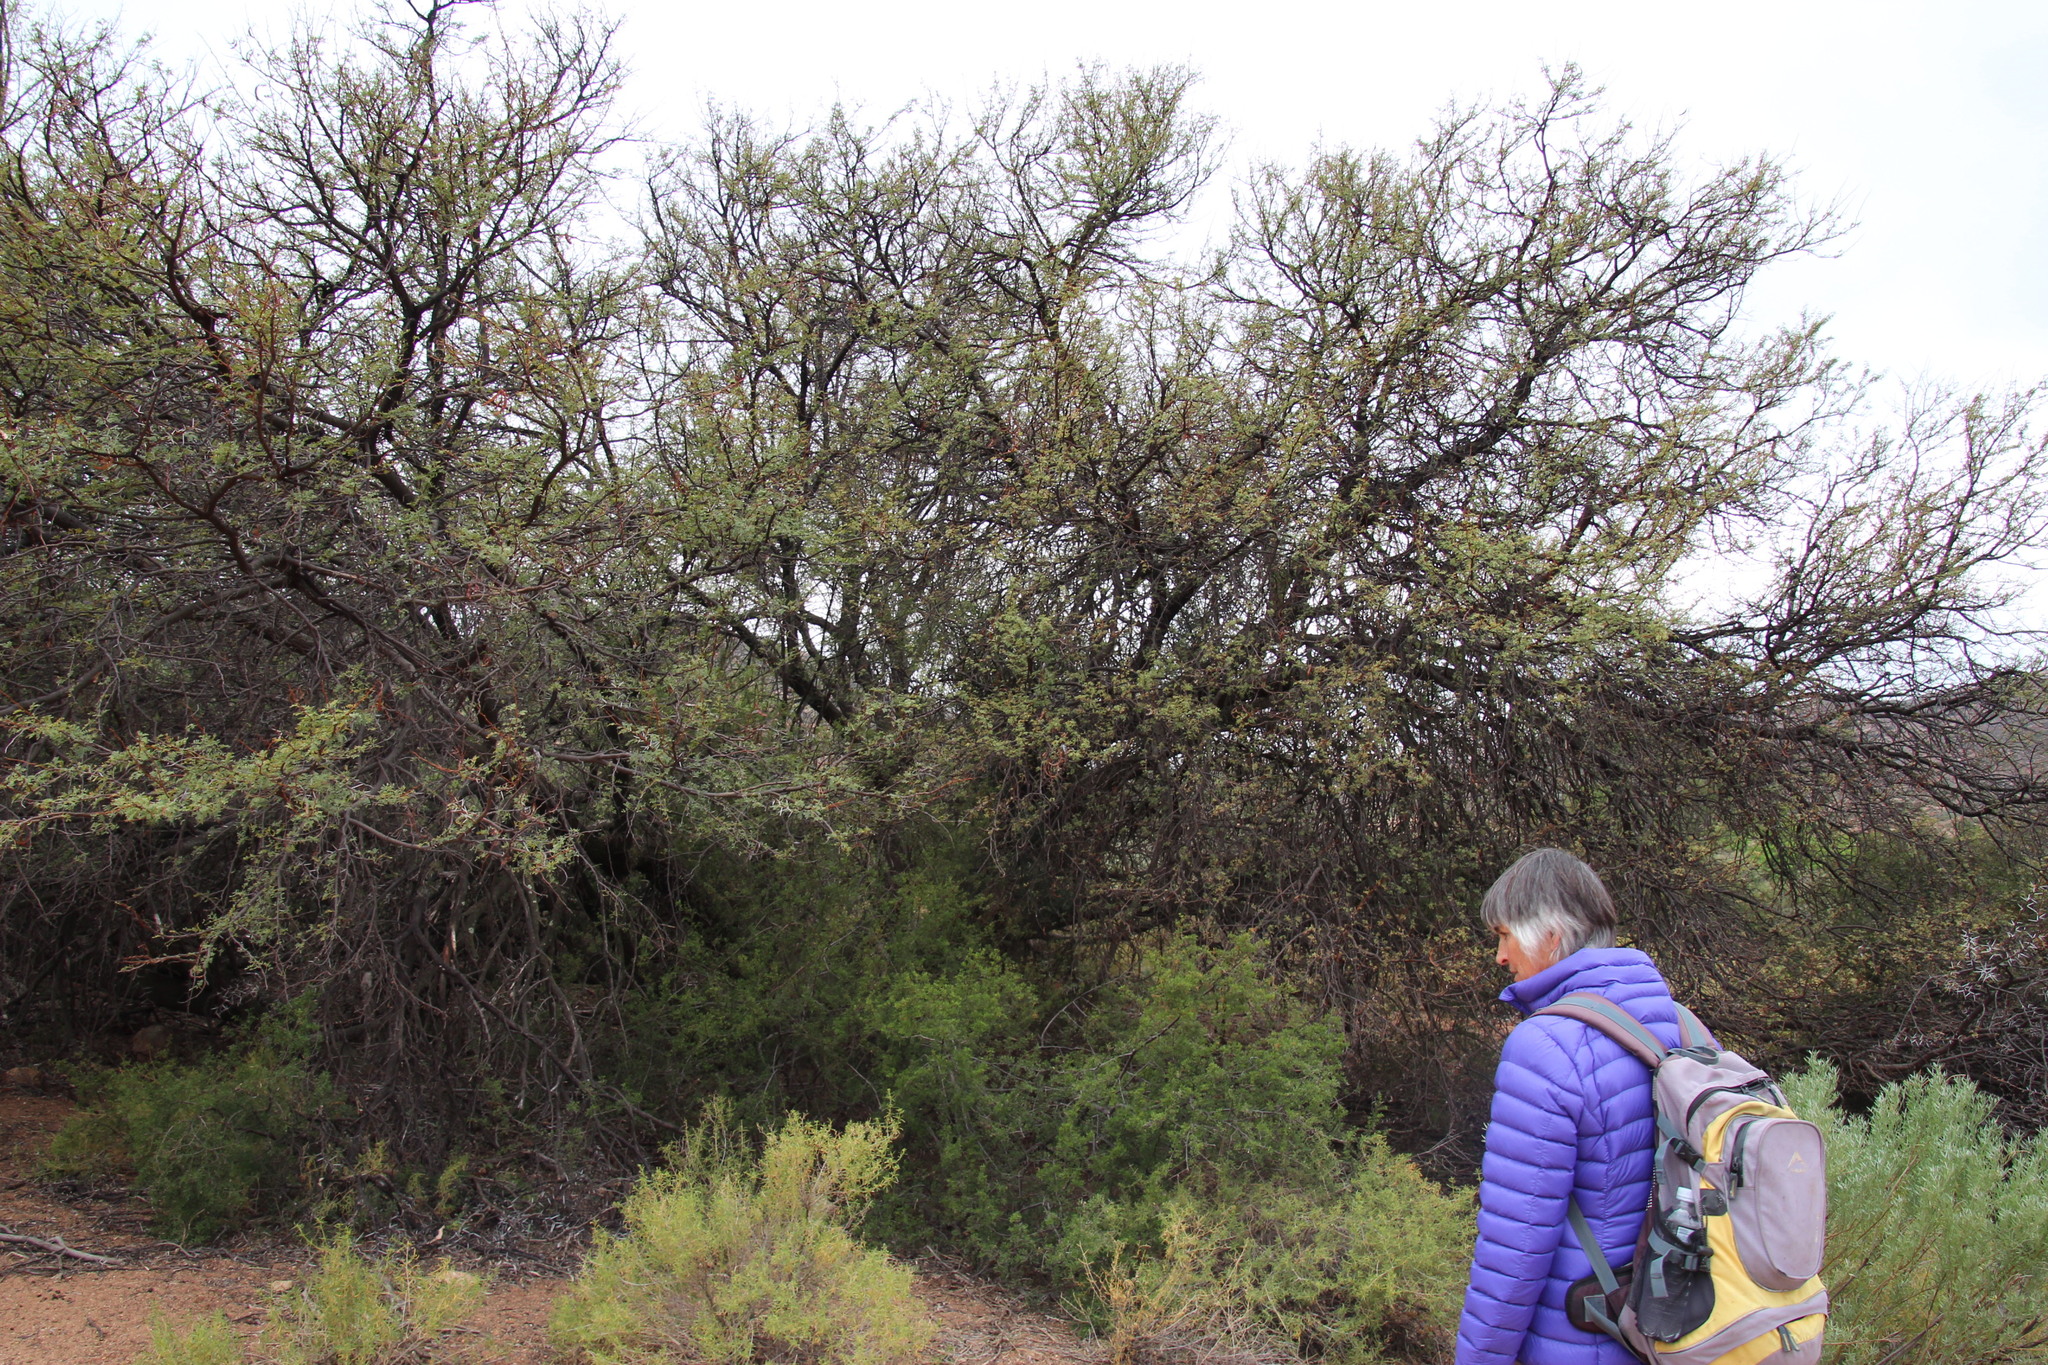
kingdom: Plantae
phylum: Tracheophyta
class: Magnoliopsida
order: Fabales
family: Fabaceae
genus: Vachellia
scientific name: Vachellia karroo
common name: Sweet thorn
